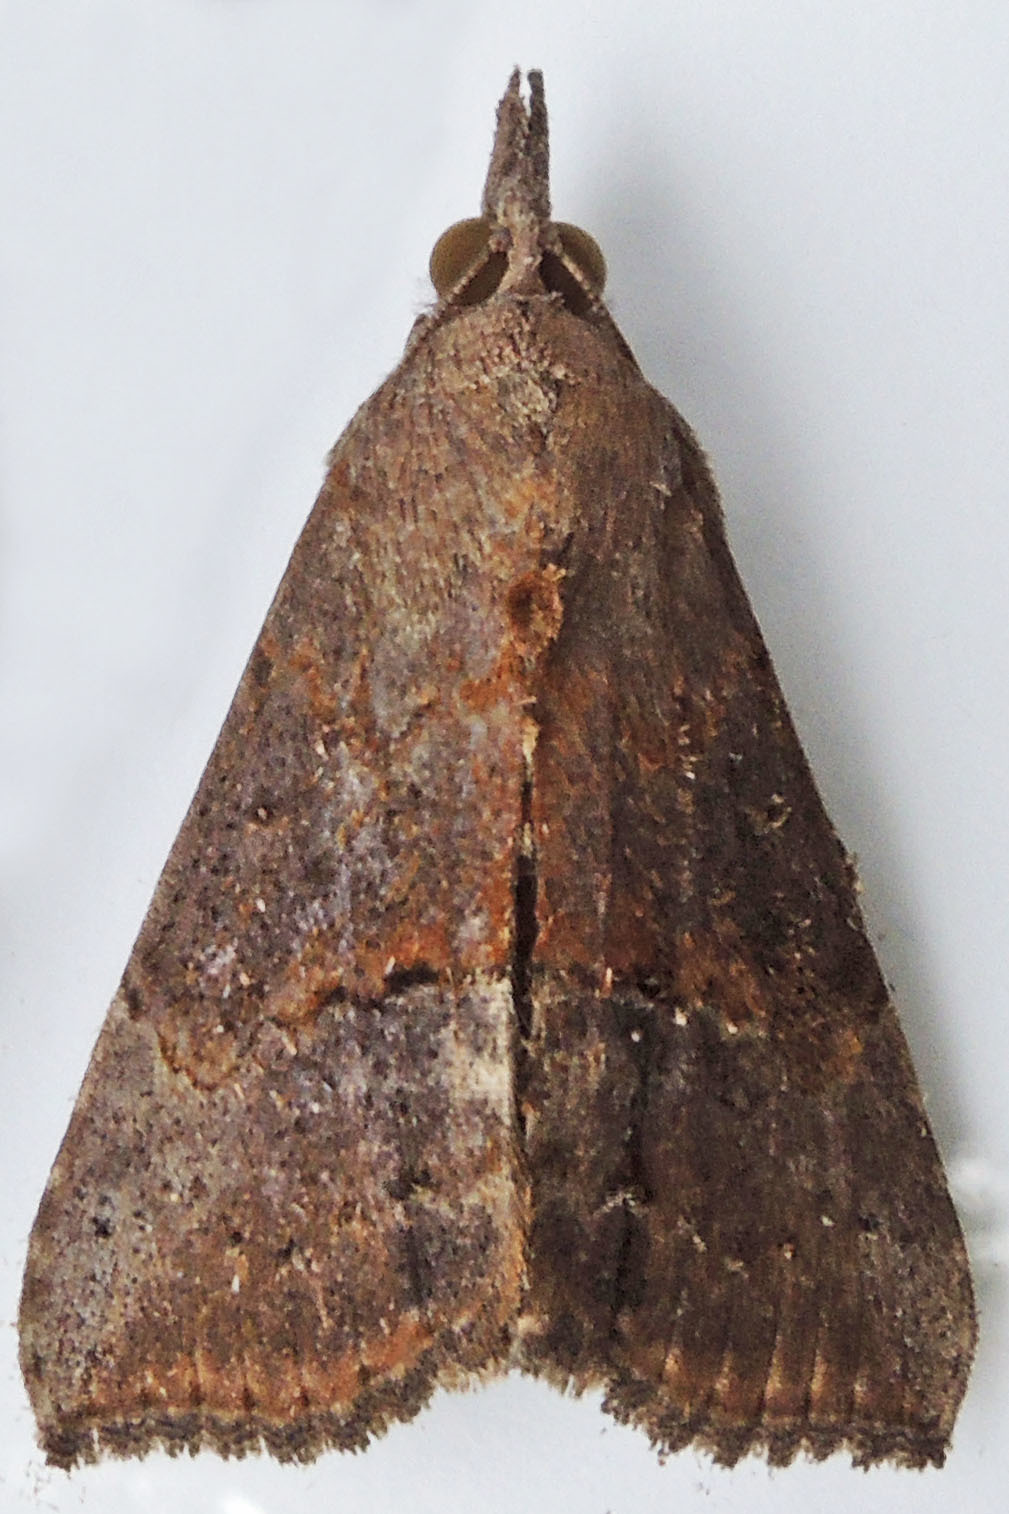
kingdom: Animalia
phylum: Arthropoda
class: Insecta
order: Lepidoptera
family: Erebidae
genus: Hypena
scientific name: Hypena scabra
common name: Green cloverworm
